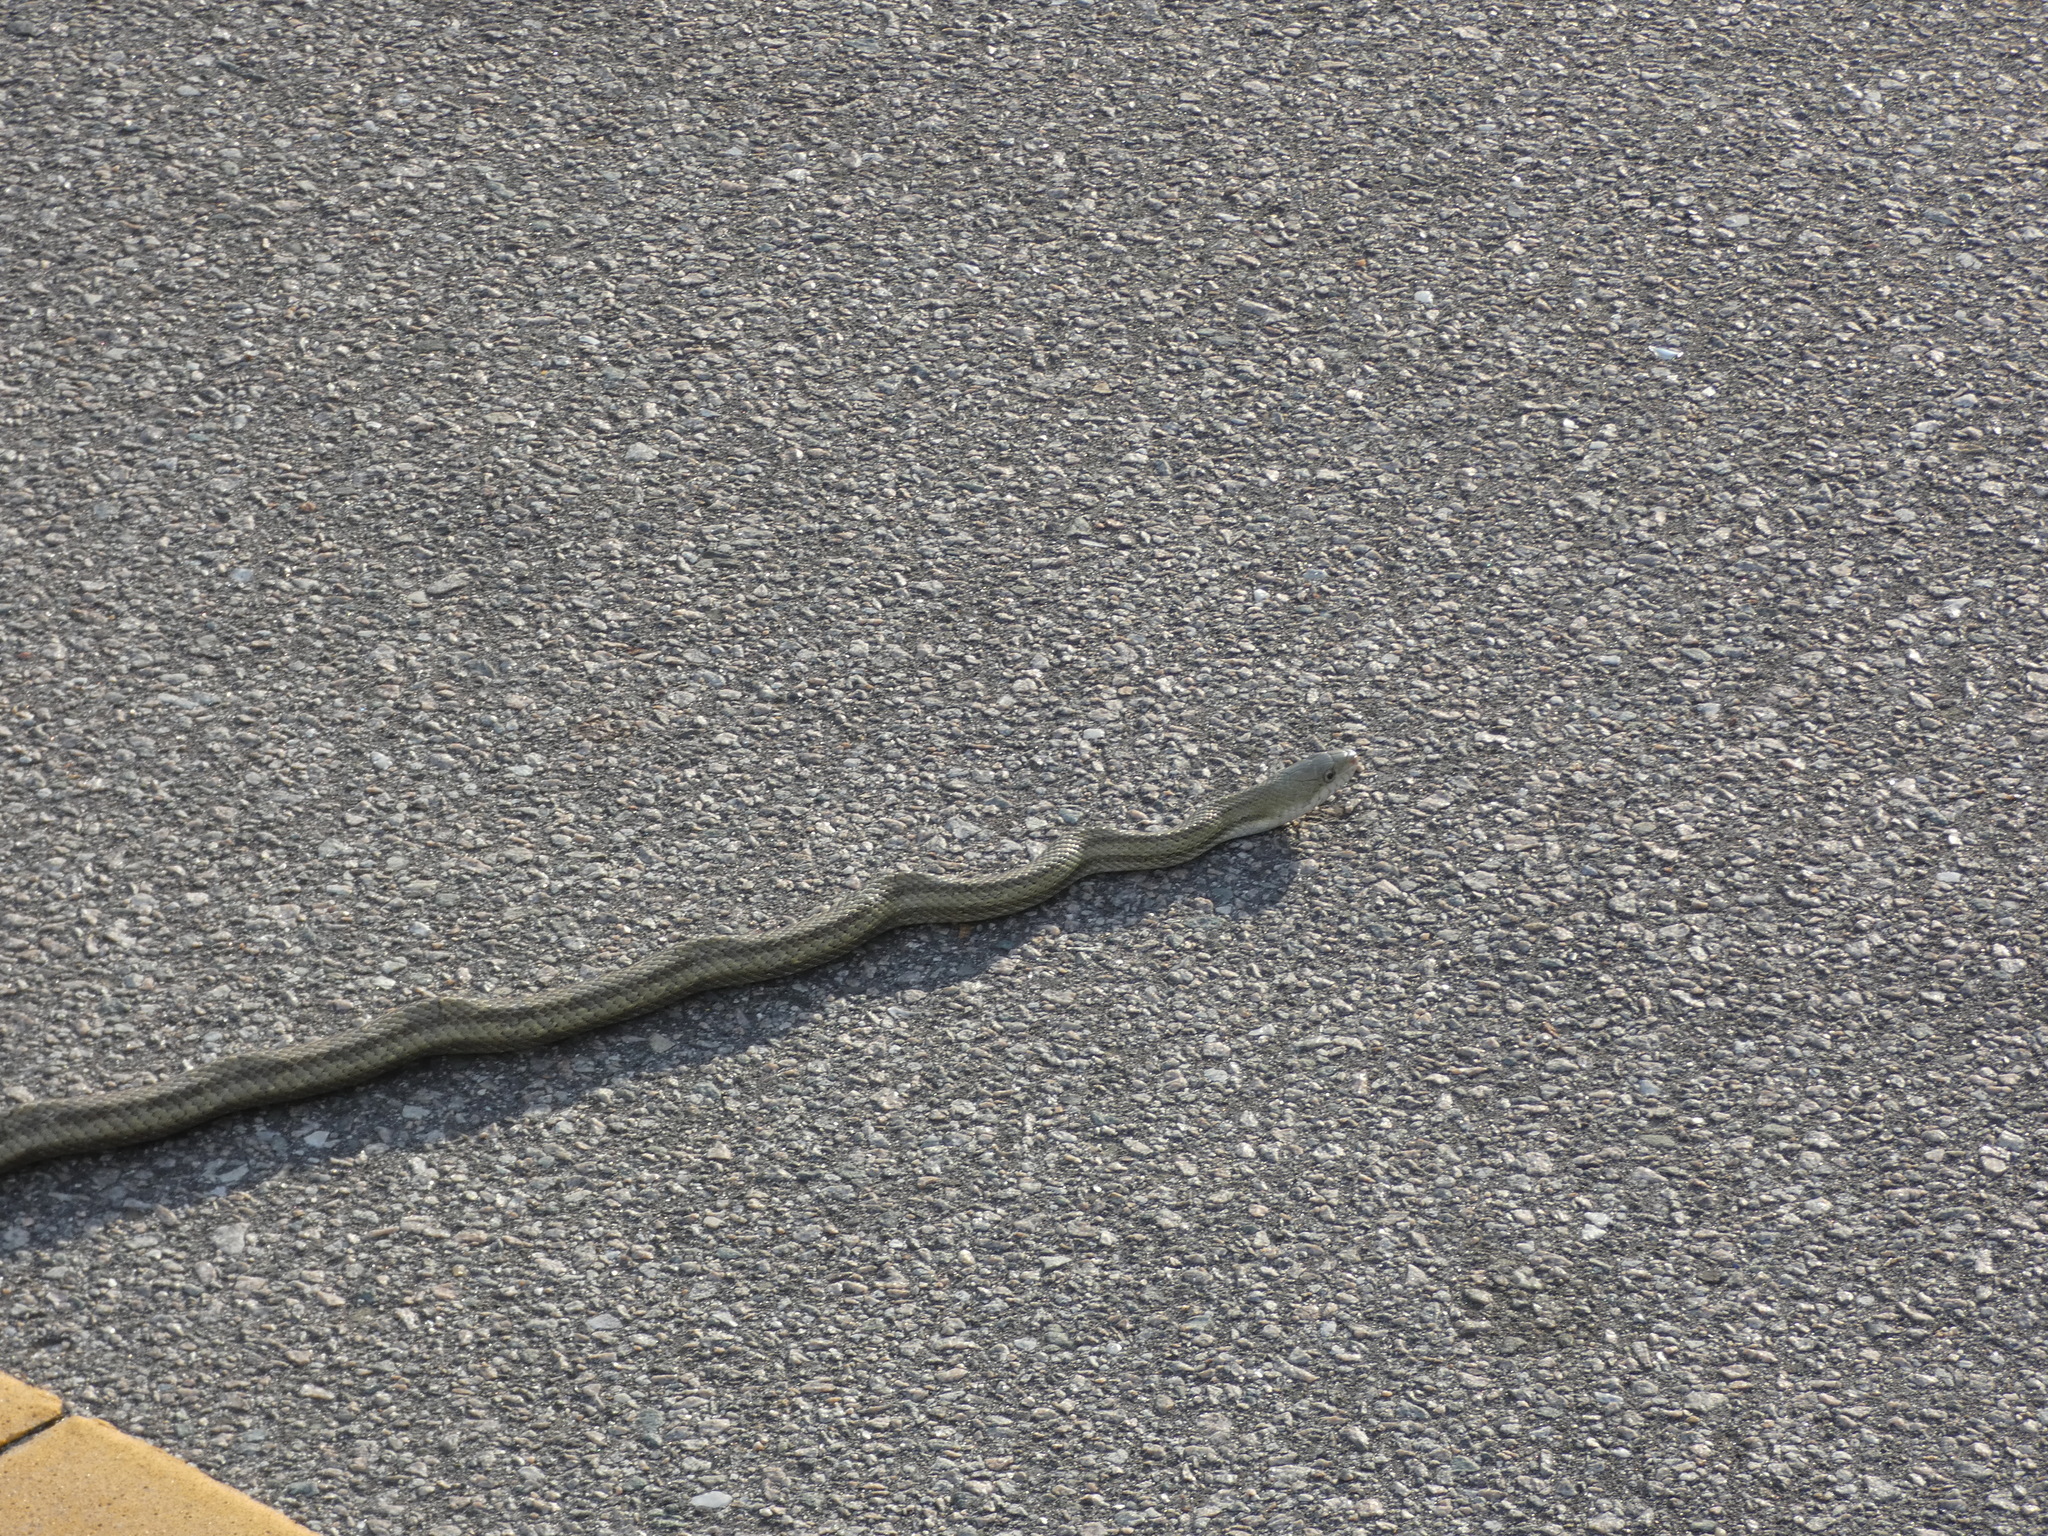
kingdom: Animalia
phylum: Chordata
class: Squamata
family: Colubridae
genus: Pantherophis
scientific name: Pantherophis alleghaniensis
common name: Eastern rat snake
